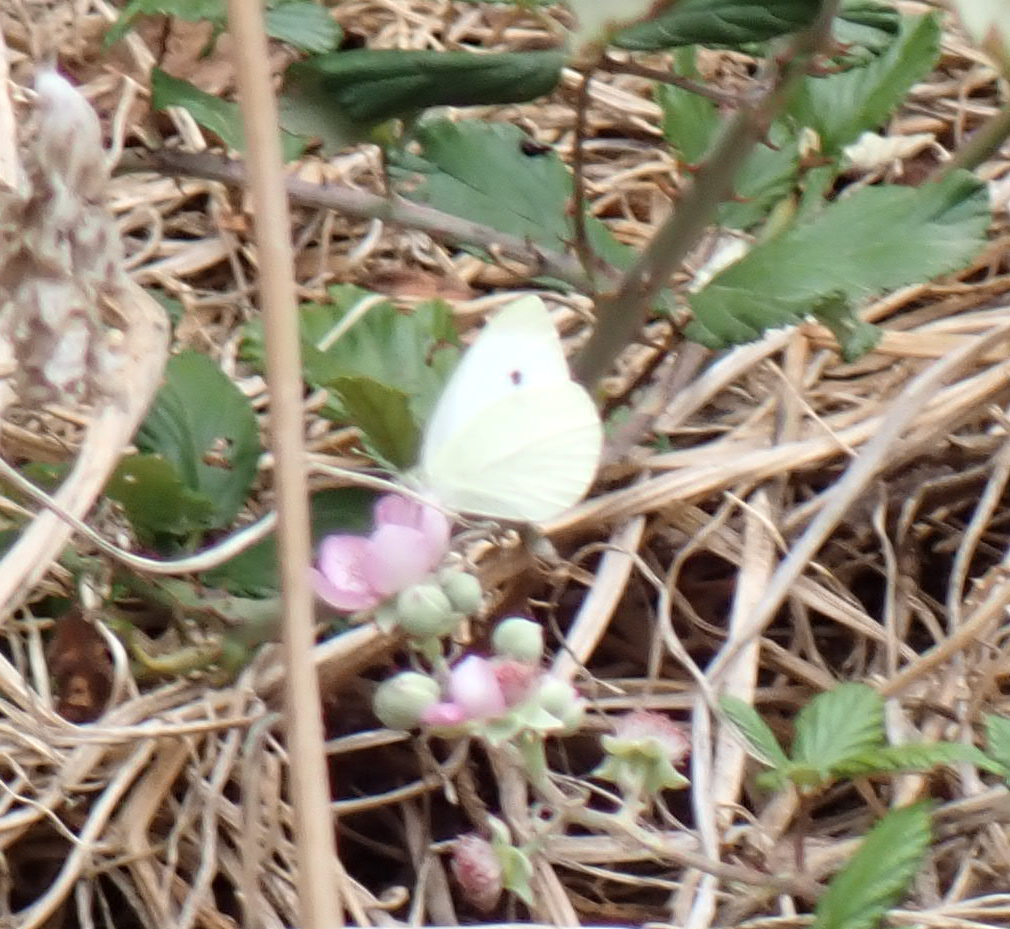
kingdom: Animalia
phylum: Arthropoda
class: Insecta
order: Lepidoptera
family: Pieridae
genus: Pieris
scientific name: Pieris rapae
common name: Small white
